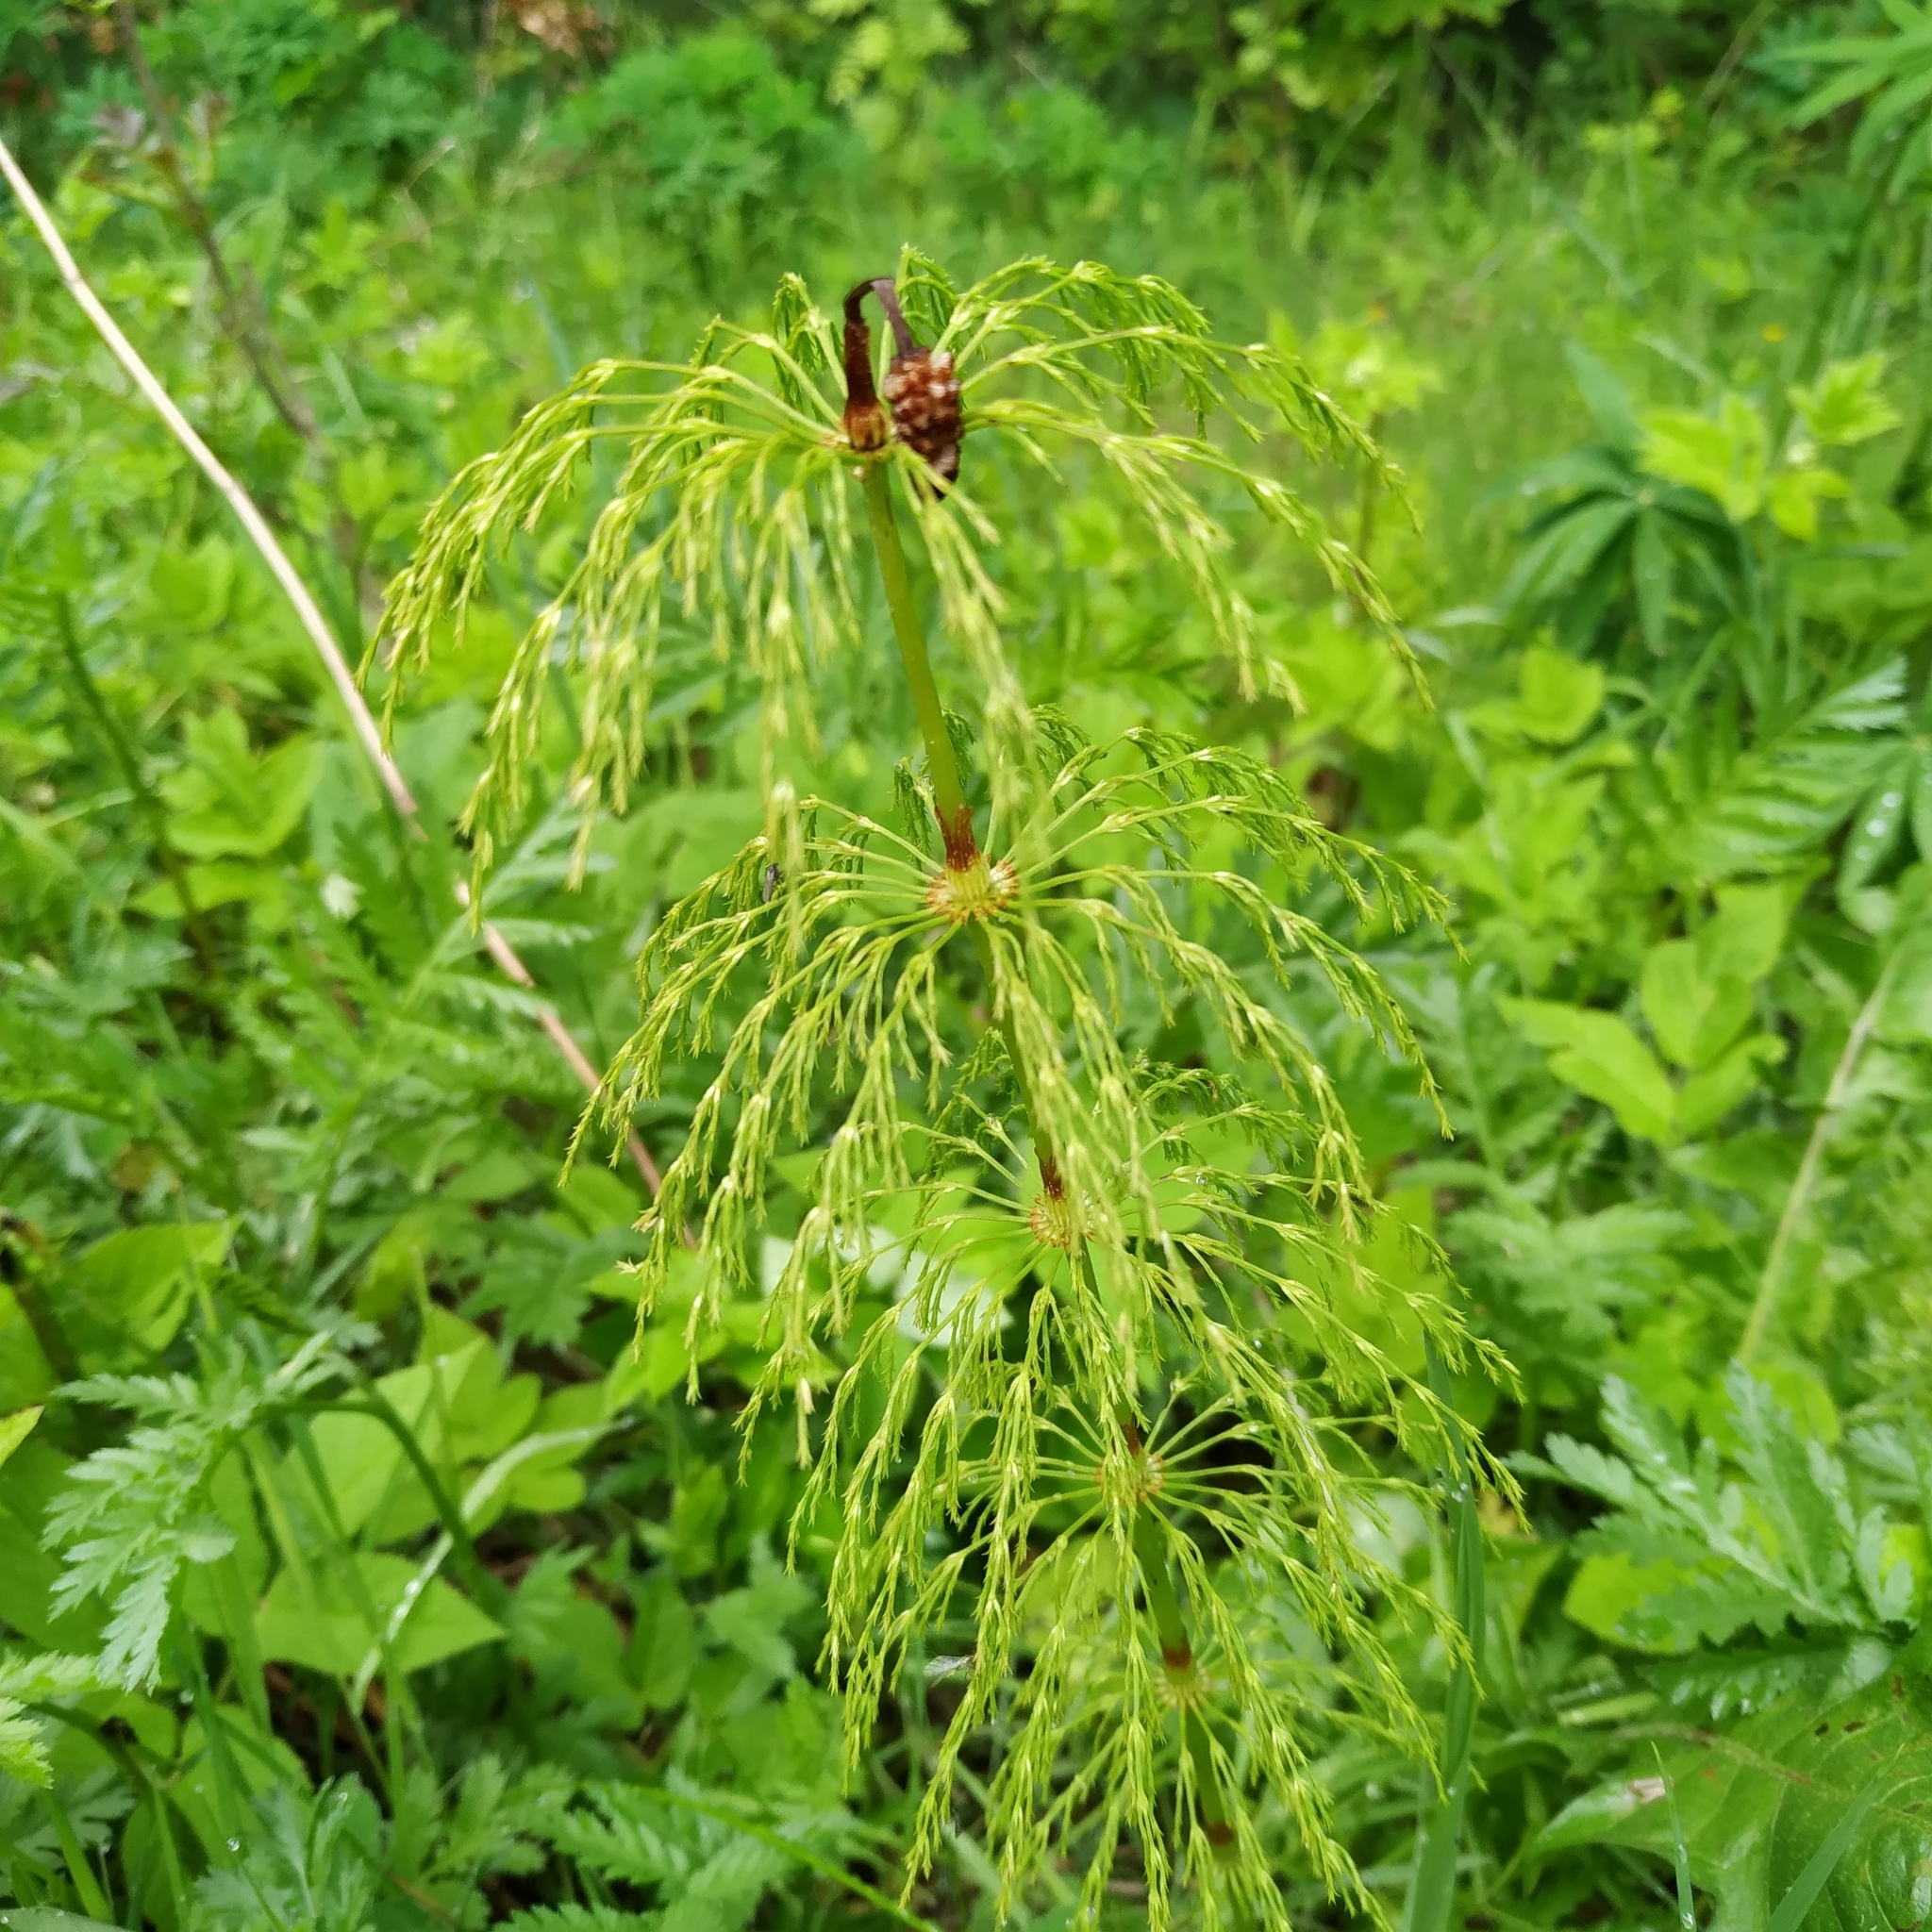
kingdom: Plantae
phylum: Tracheophyta
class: Polypodiopsida
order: Equisetales
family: Equisetaceae
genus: Equisetum
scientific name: Equisetum sylvaticum
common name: Wood horsetail
